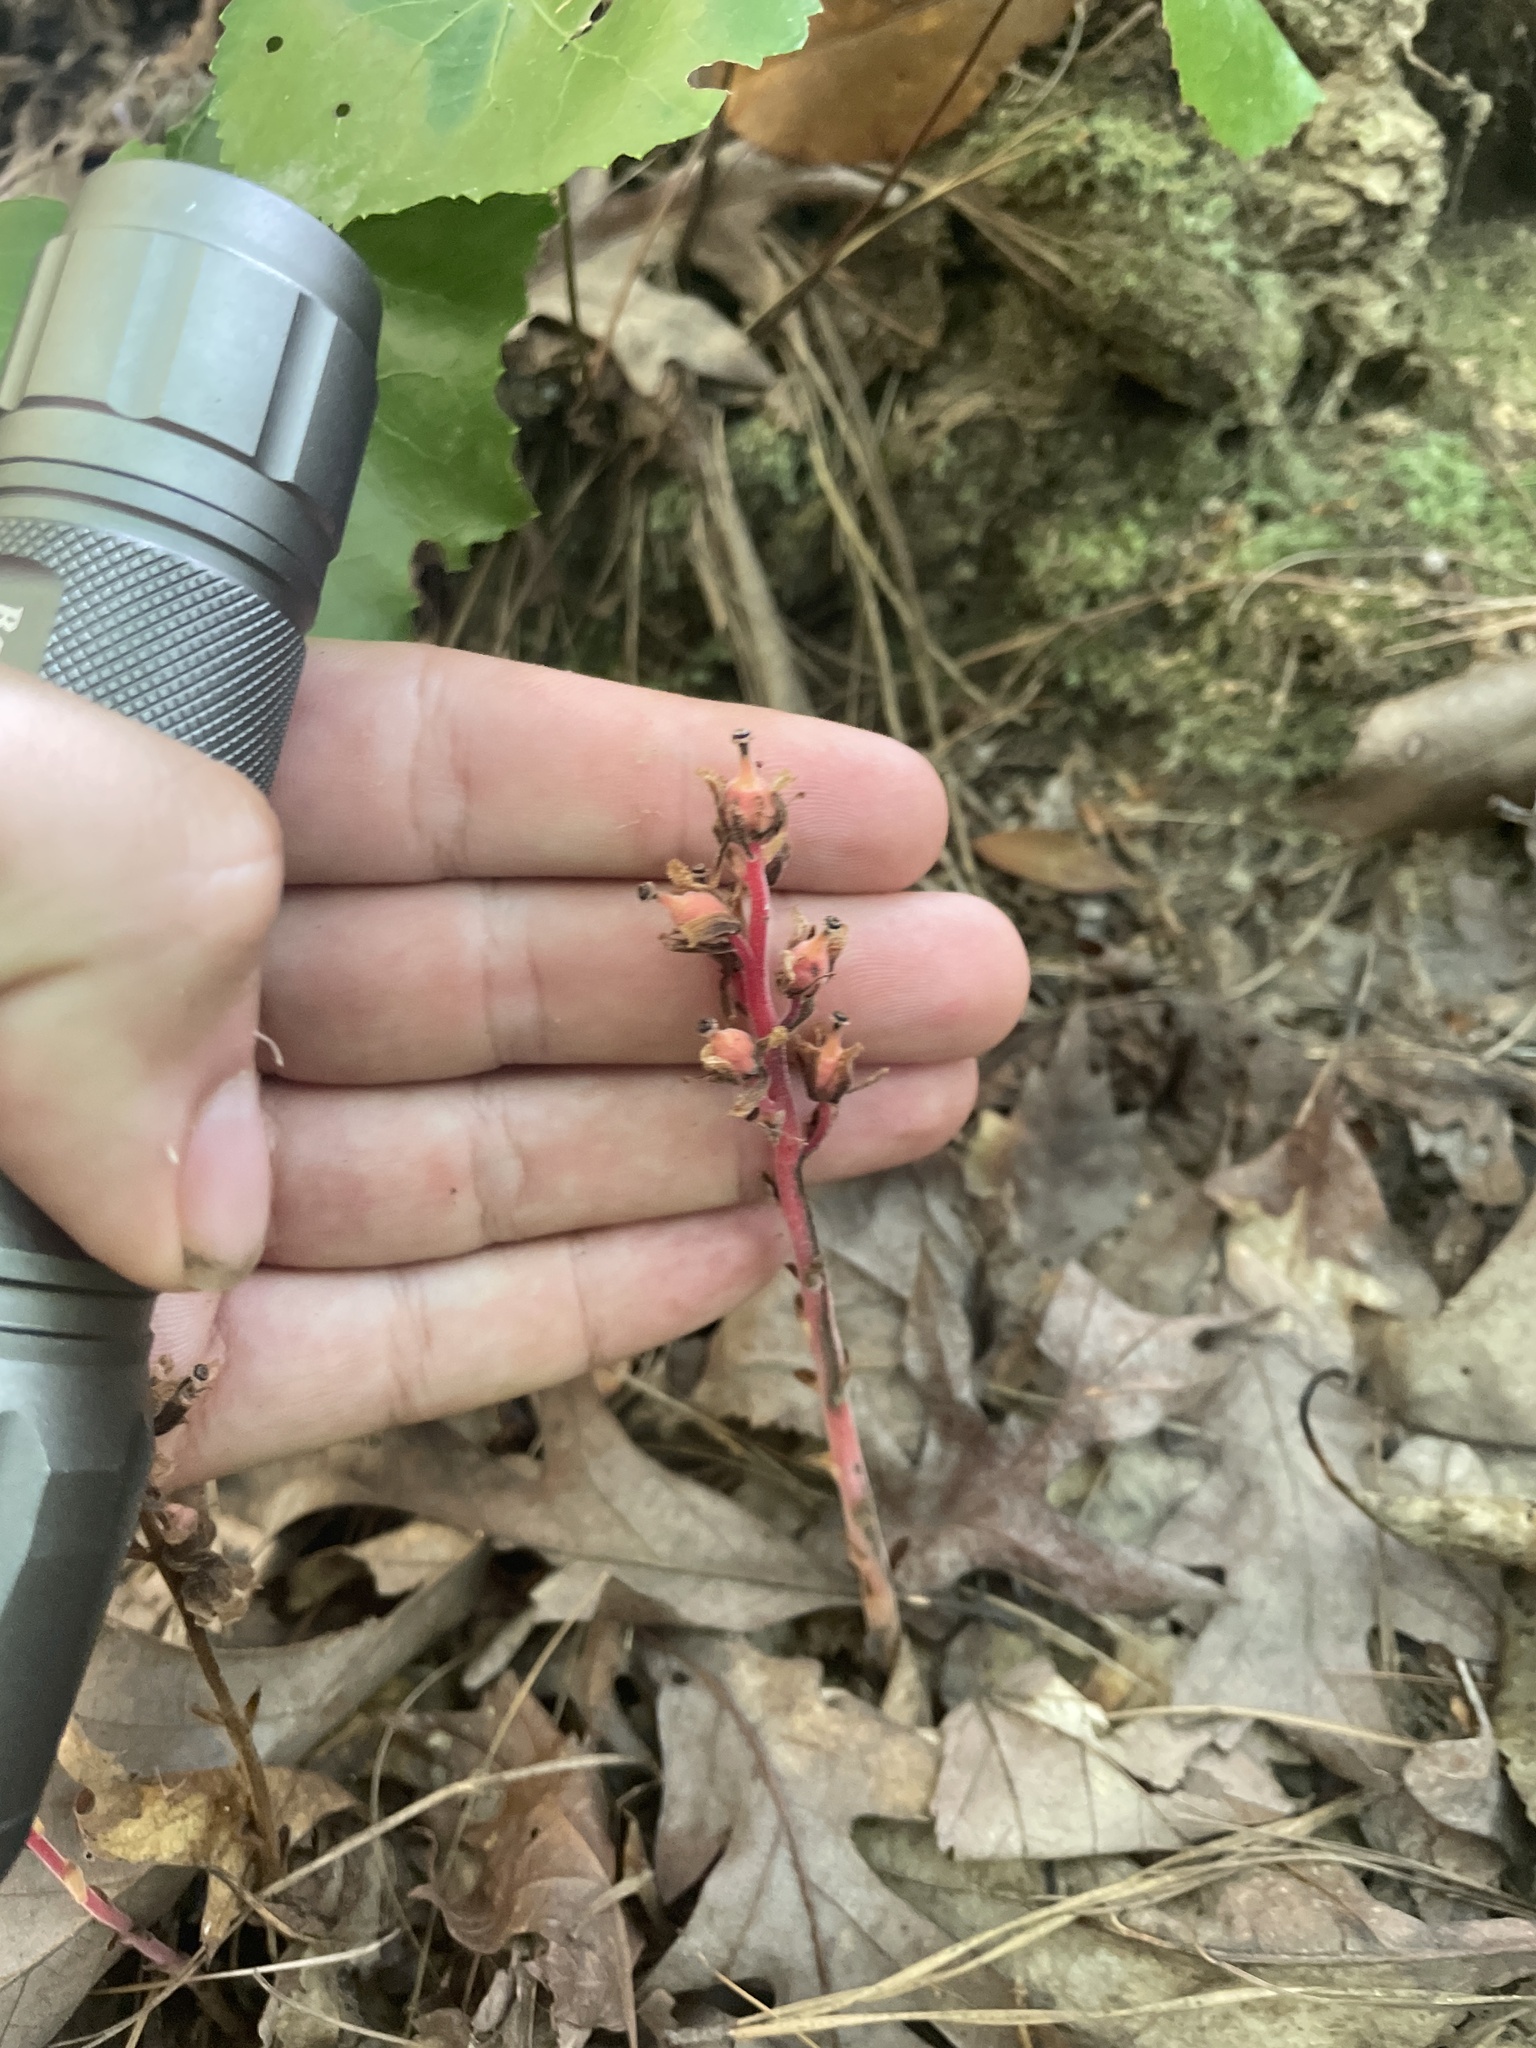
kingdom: Plantae
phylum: Tracheophyta
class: Magnoliopsida
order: Ericales
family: Ericaceae
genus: Hypopitys
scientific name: Hypopitys monotropa
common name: Yellow bird's-nest
